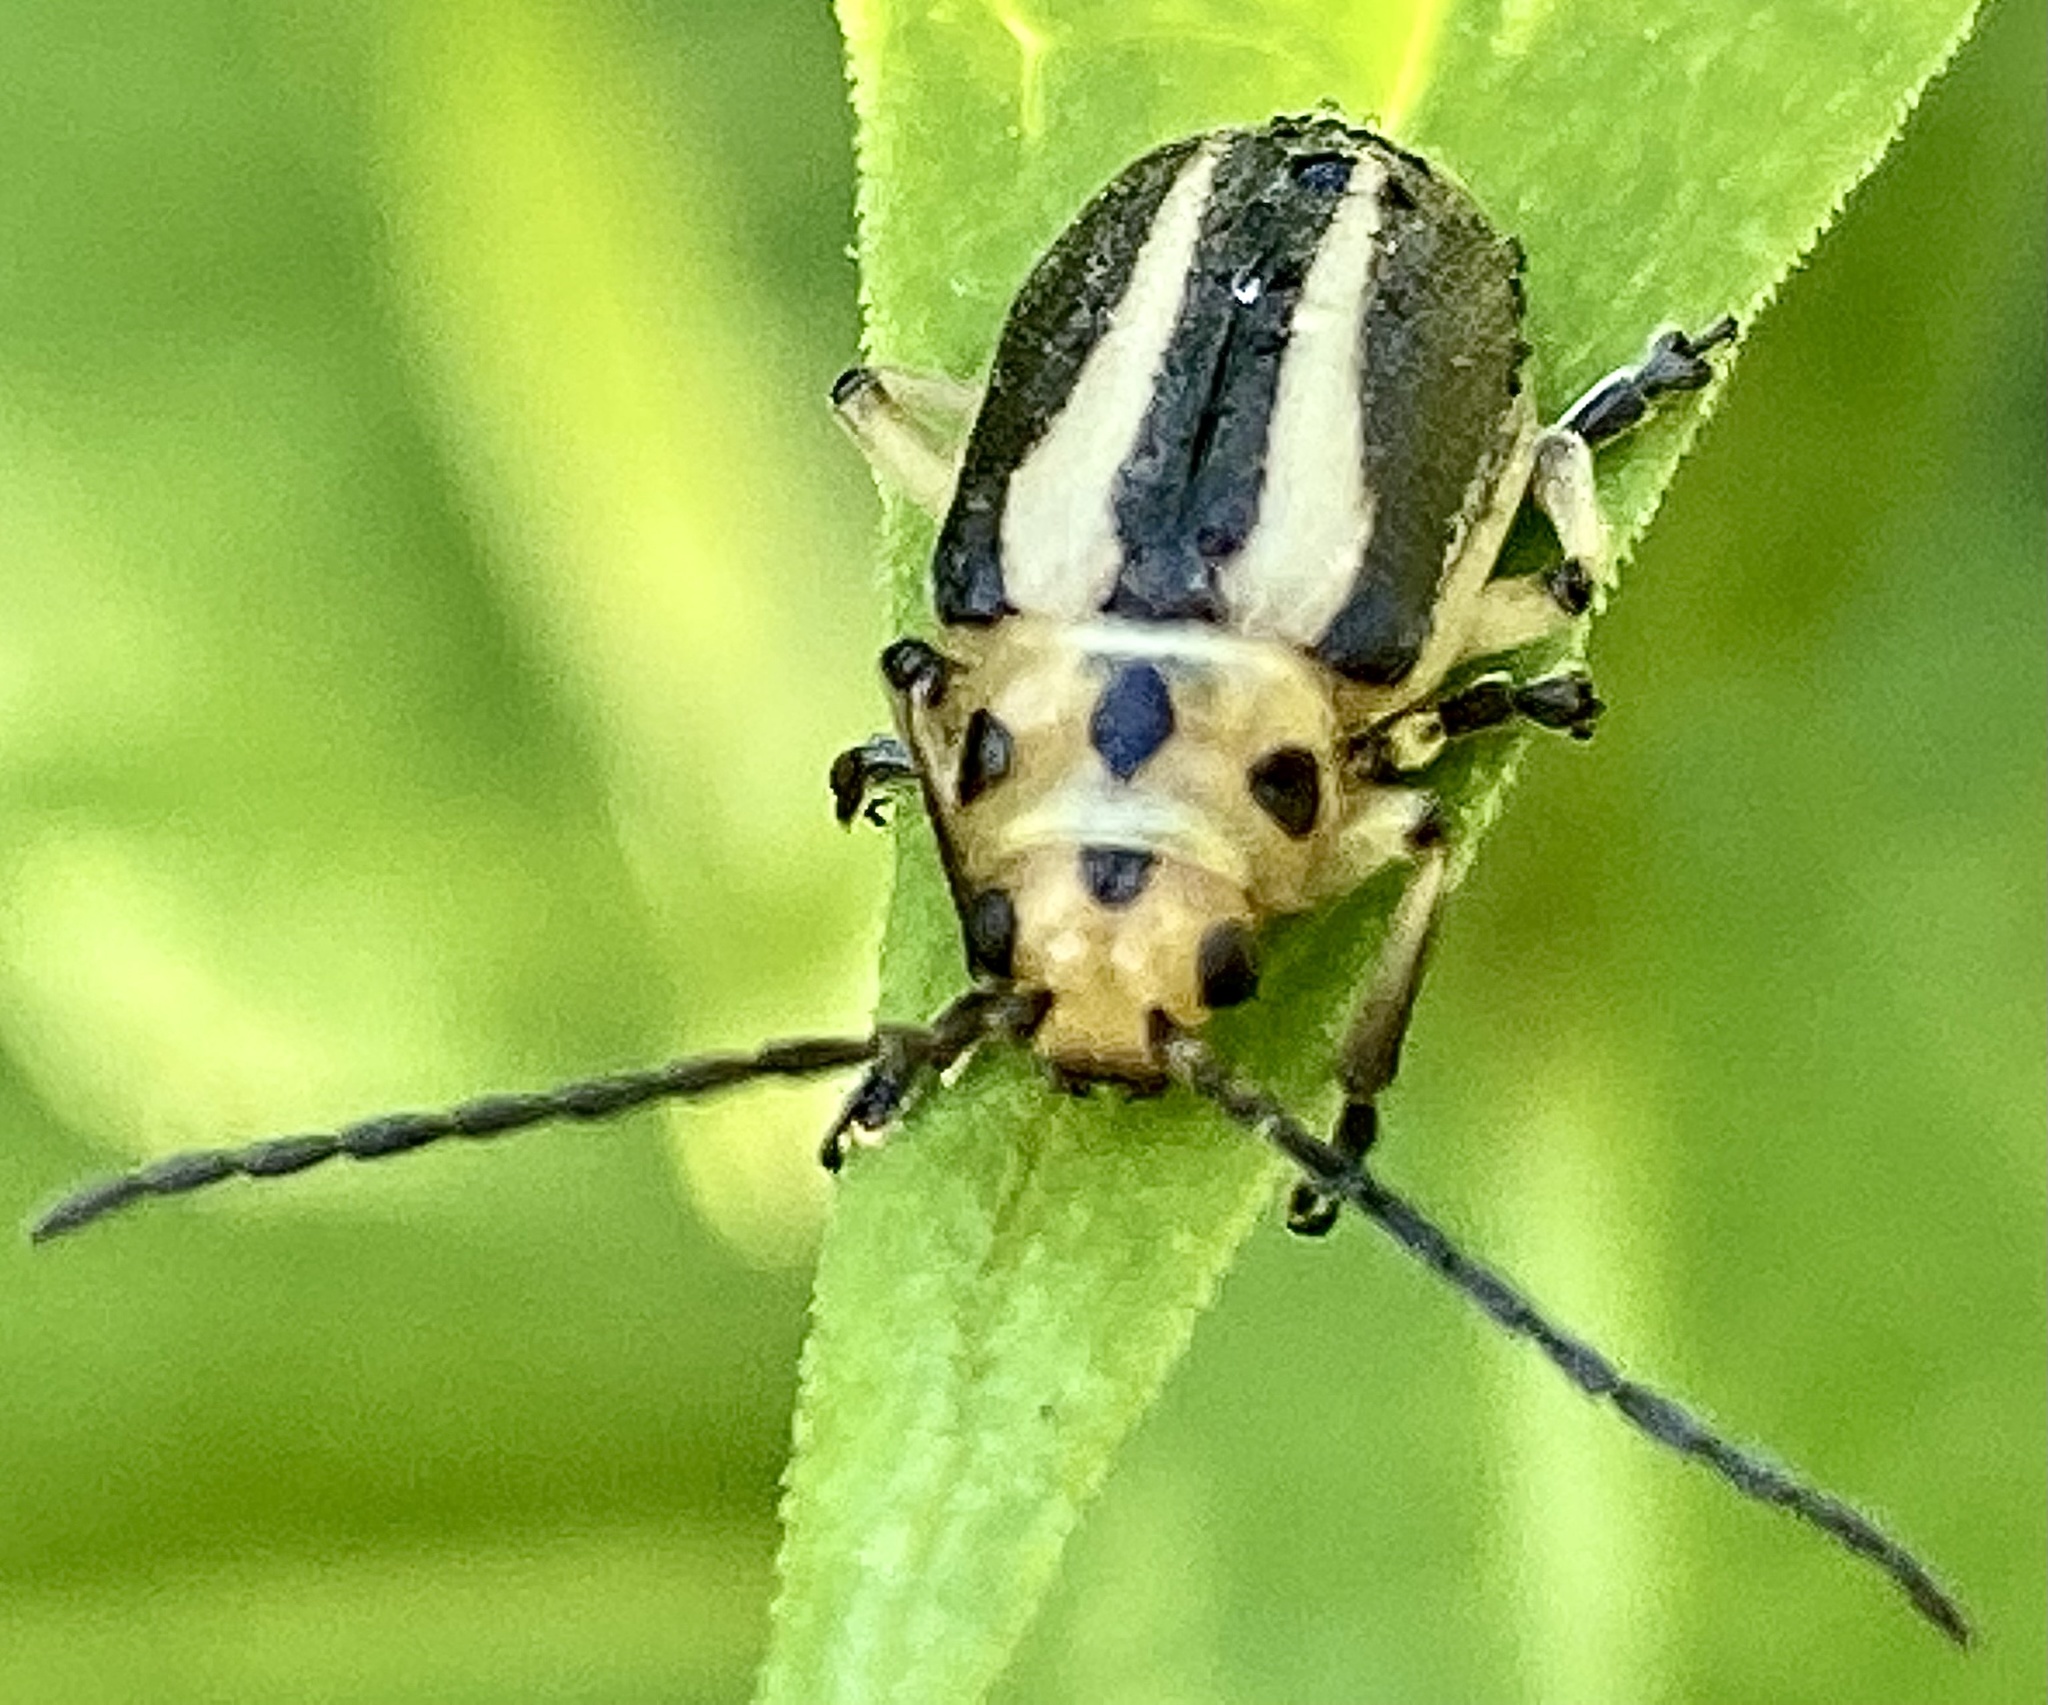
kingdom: Animalia
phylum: Arthropoda
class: Insecta
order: Coleoptera
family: Chrysomelidae
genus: Trirhabda
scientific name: Trirhabda bacharidis
